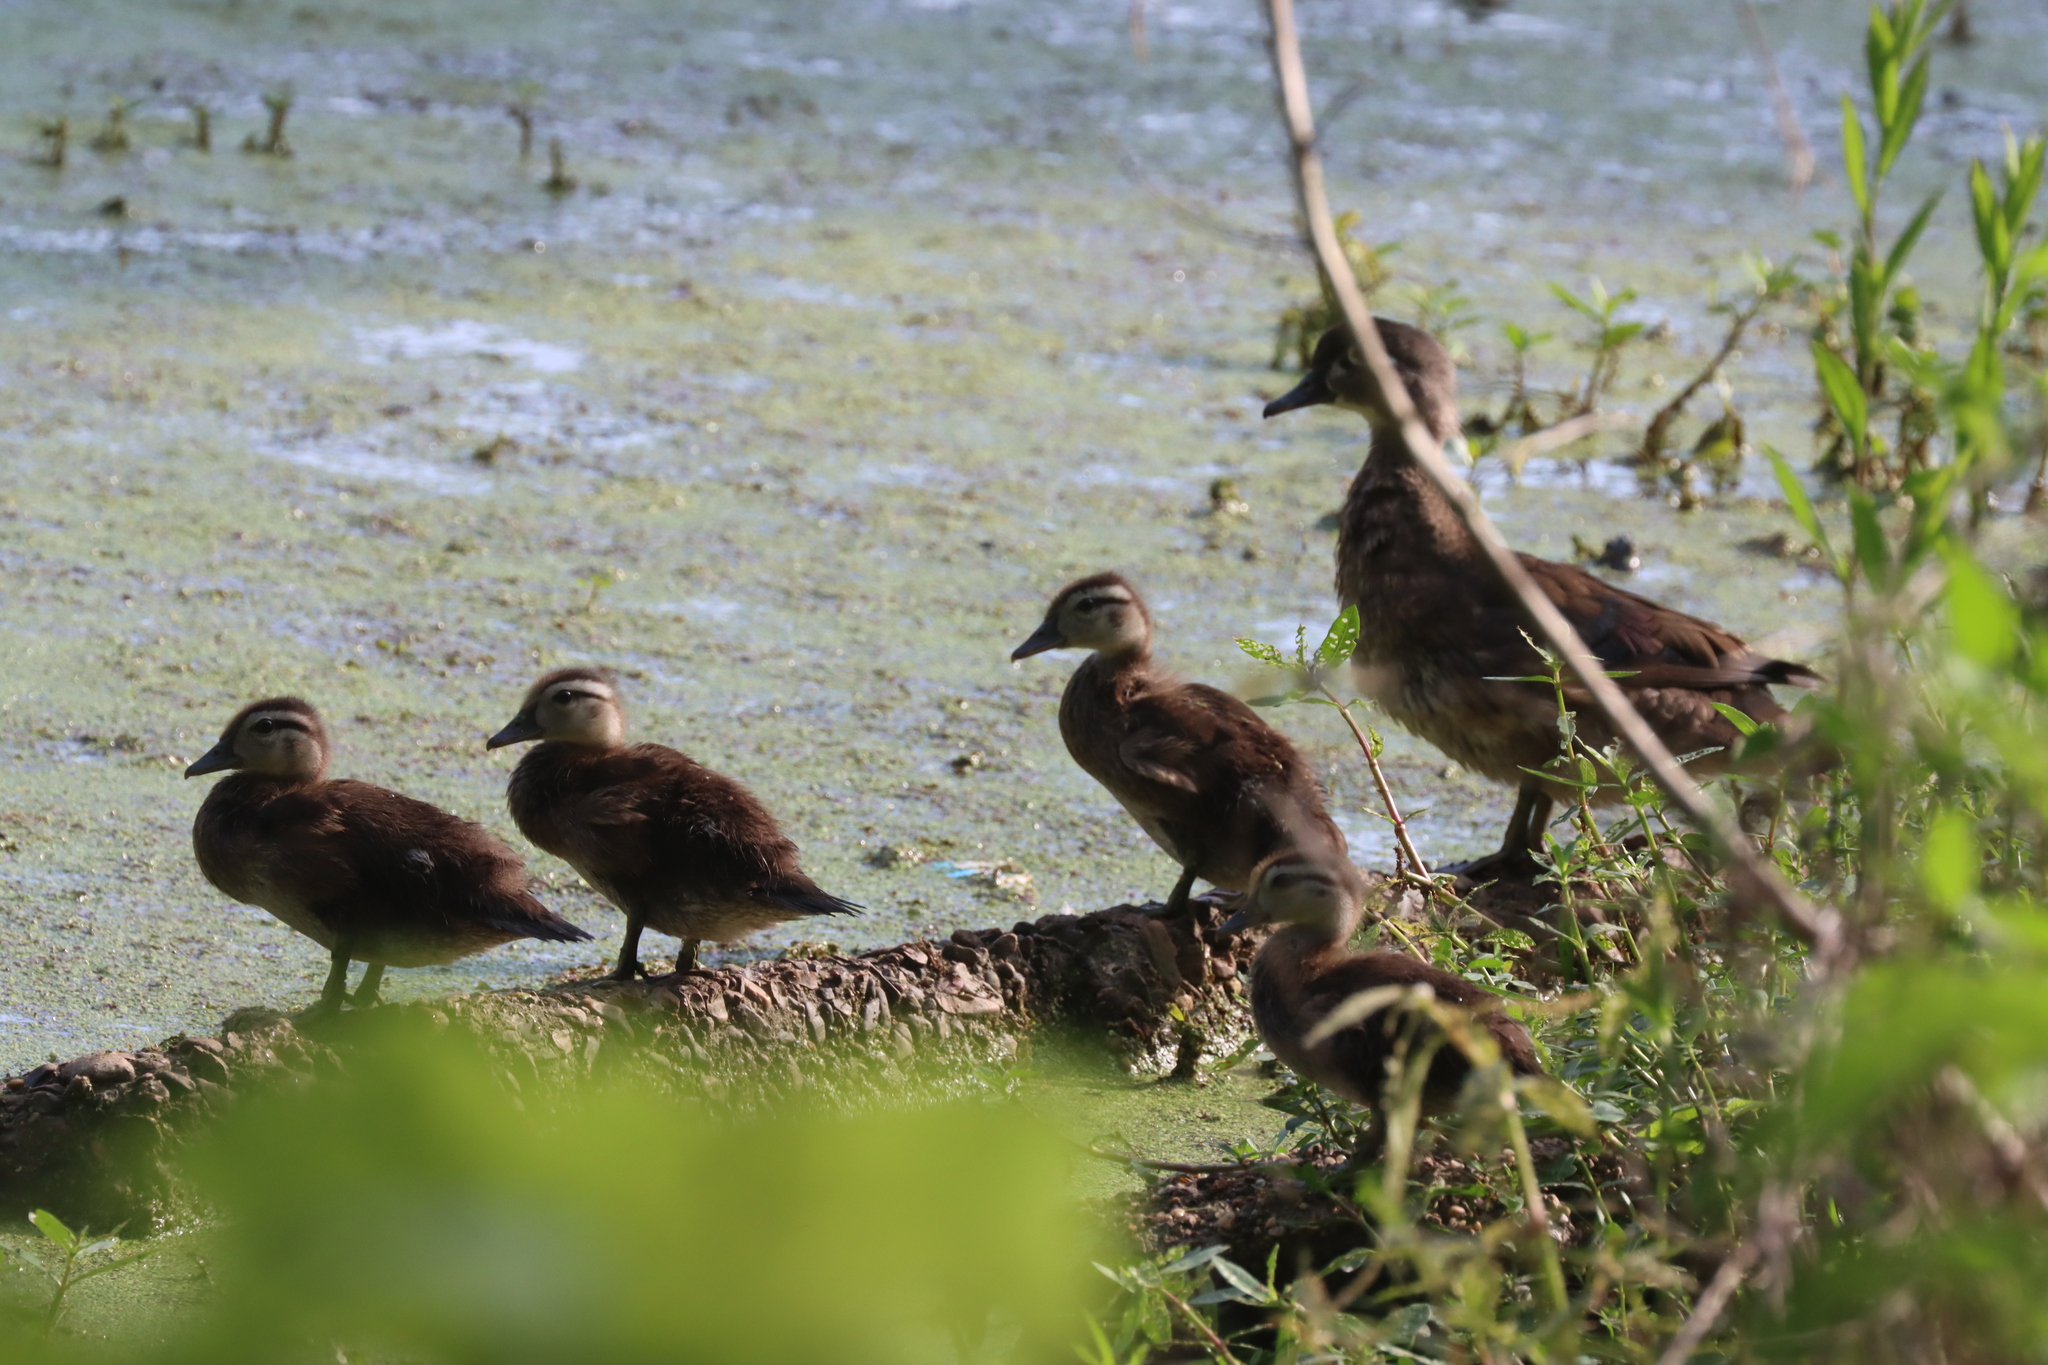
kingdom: Animalia
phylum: Chordata
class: Aves
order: Anseriformes
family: Anatidae
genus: Aix
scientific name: Aix sponsa
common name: Wood duck
